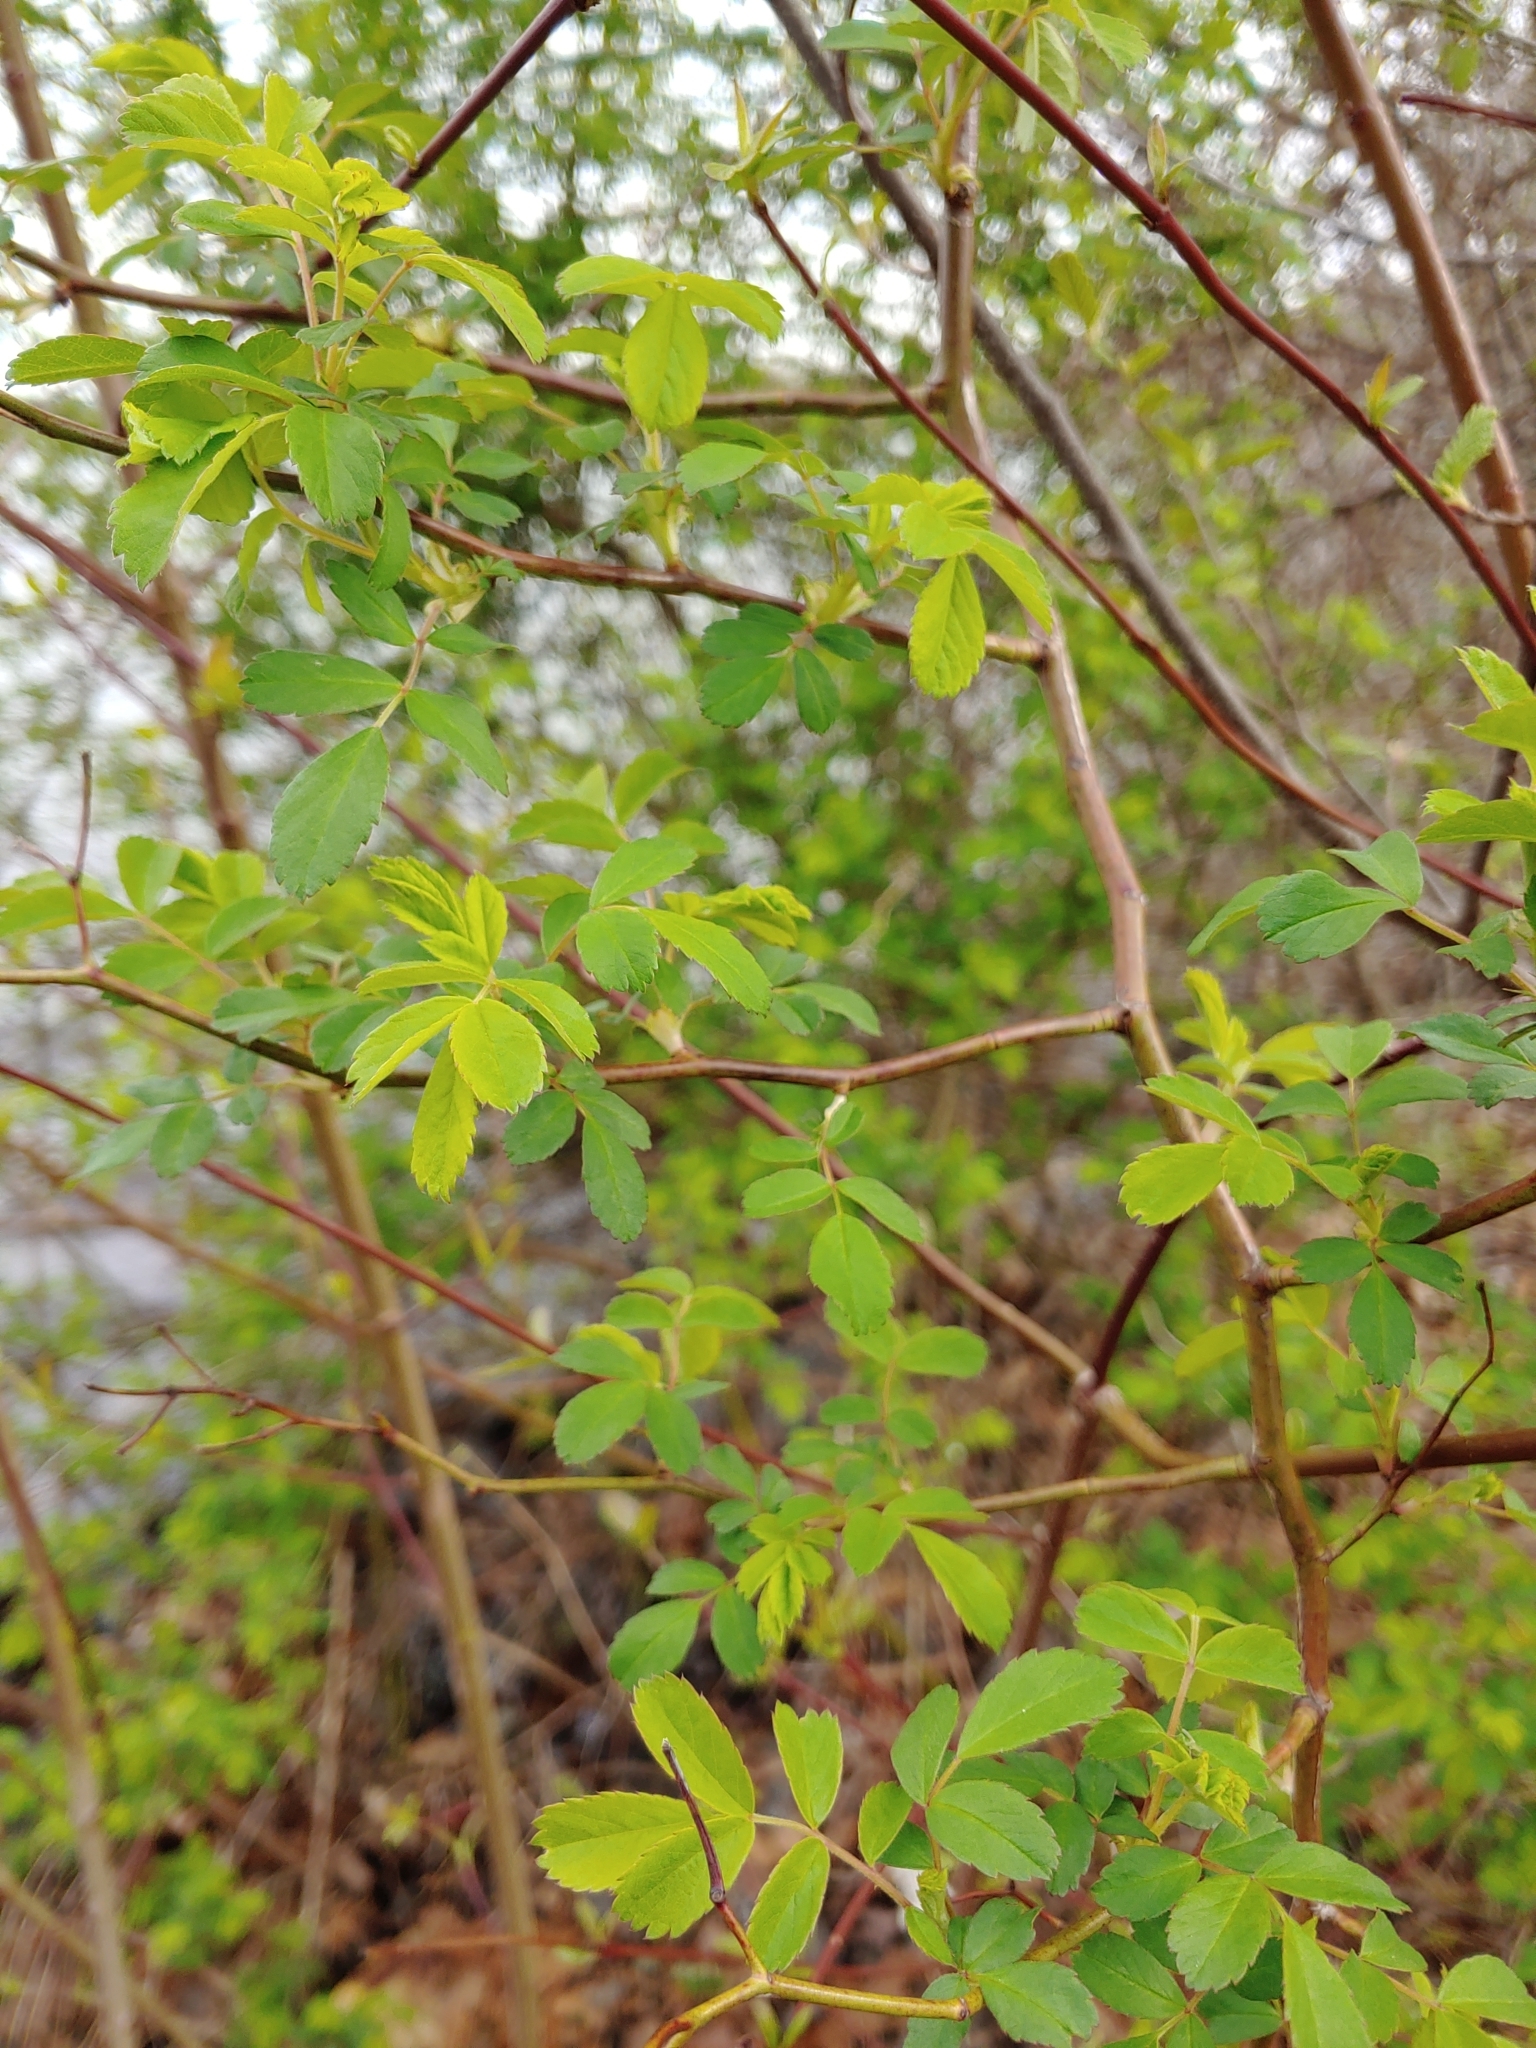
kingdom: Plantae
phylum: Tracheophyta
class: Magnoliopsida
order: Rosales
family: Rosaceae
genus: Rosa
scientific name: Rosa multiflora
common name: Multiflora rose
